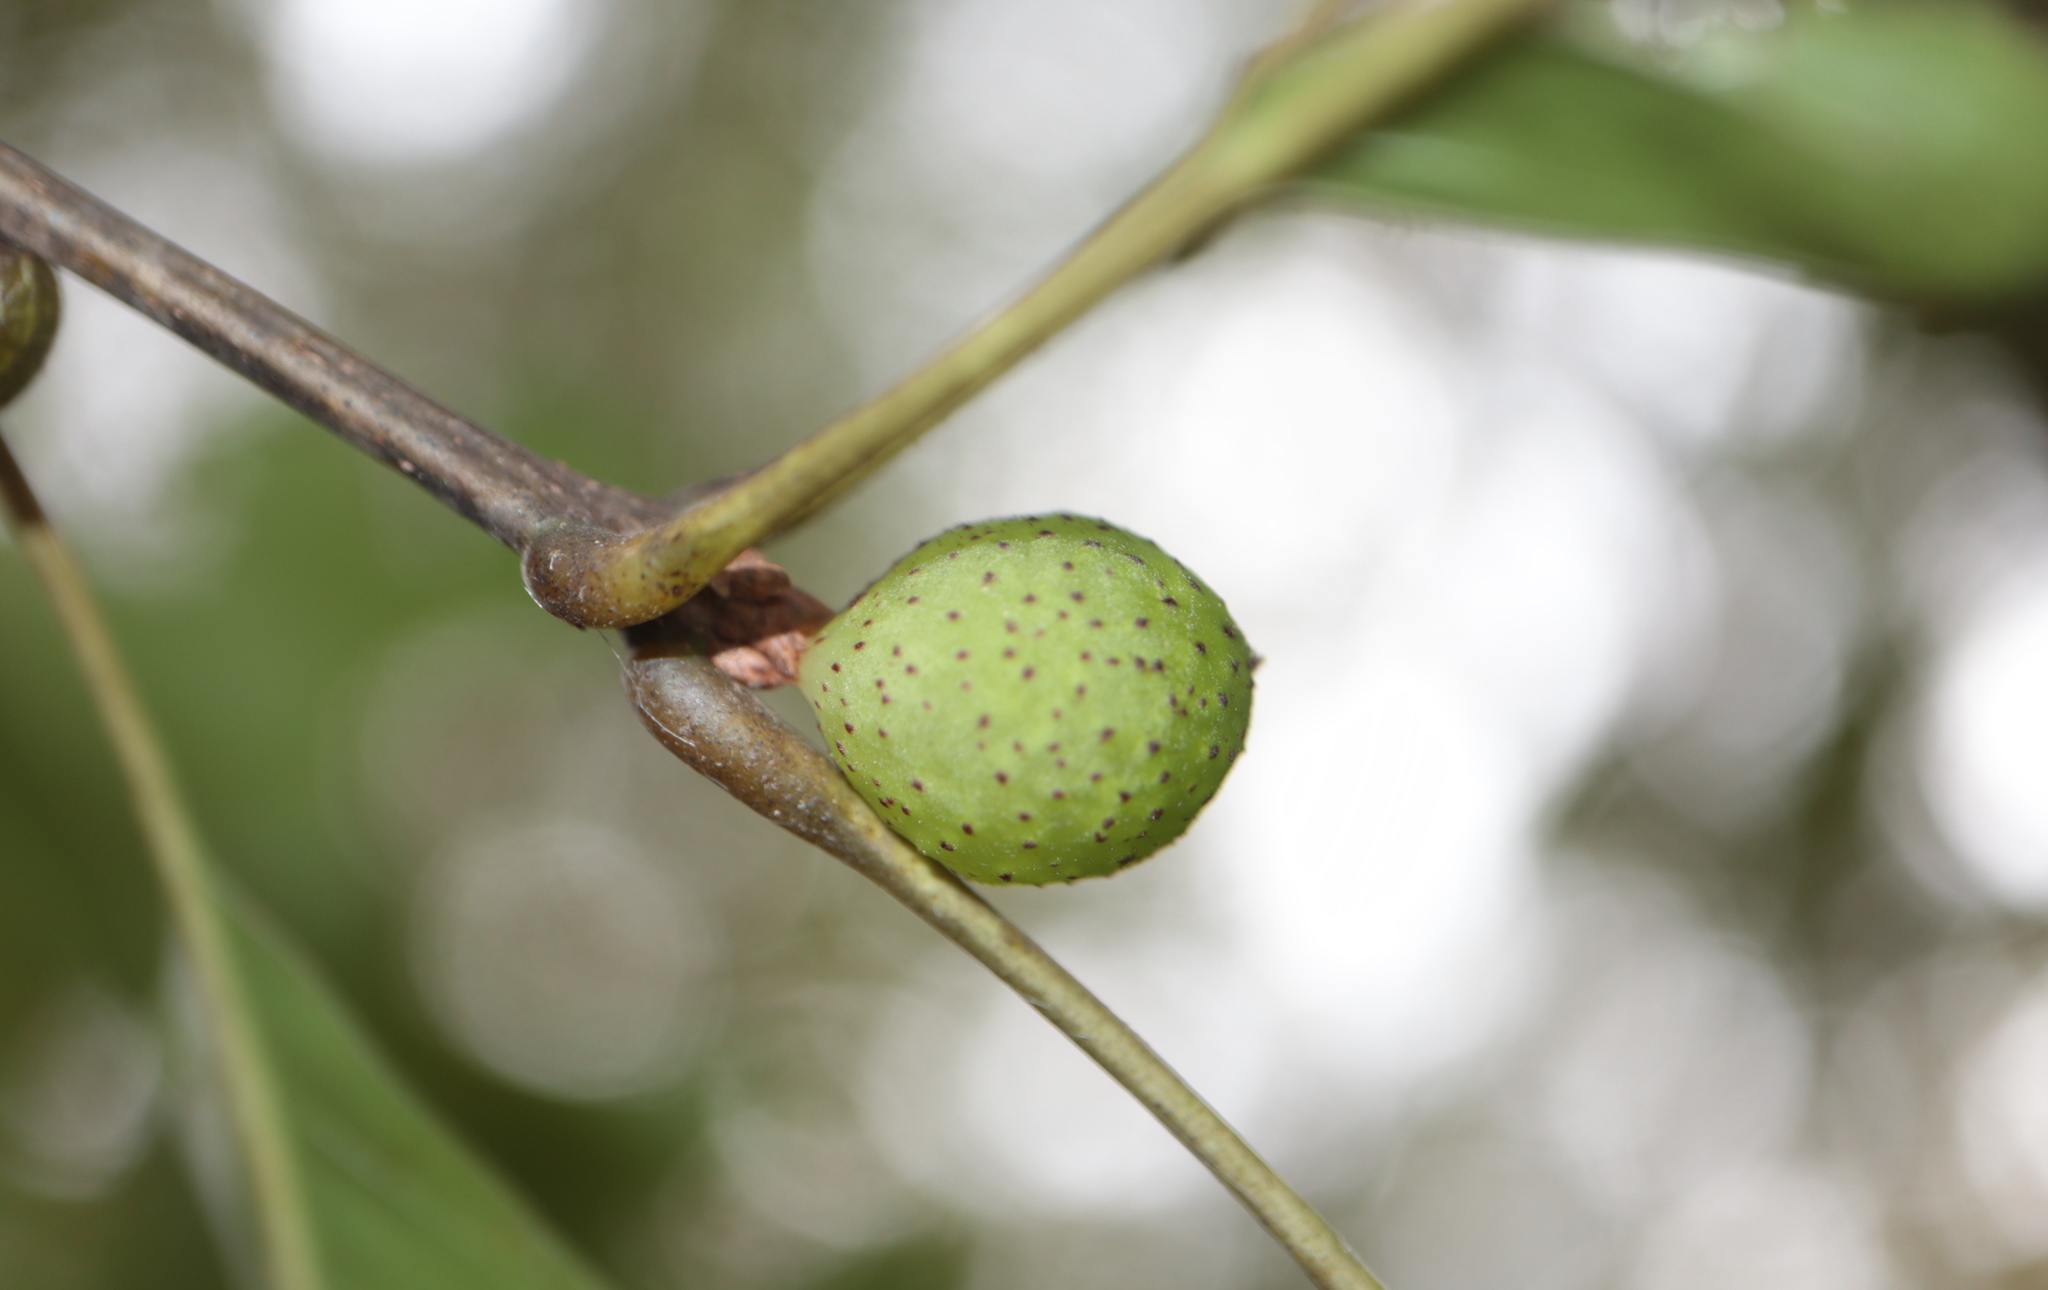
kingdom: Animalia
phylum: Arthropoda
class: Insecta
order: Hymenoptera
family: Cynipidae
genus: Amphibolips
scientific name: Amphibolips
